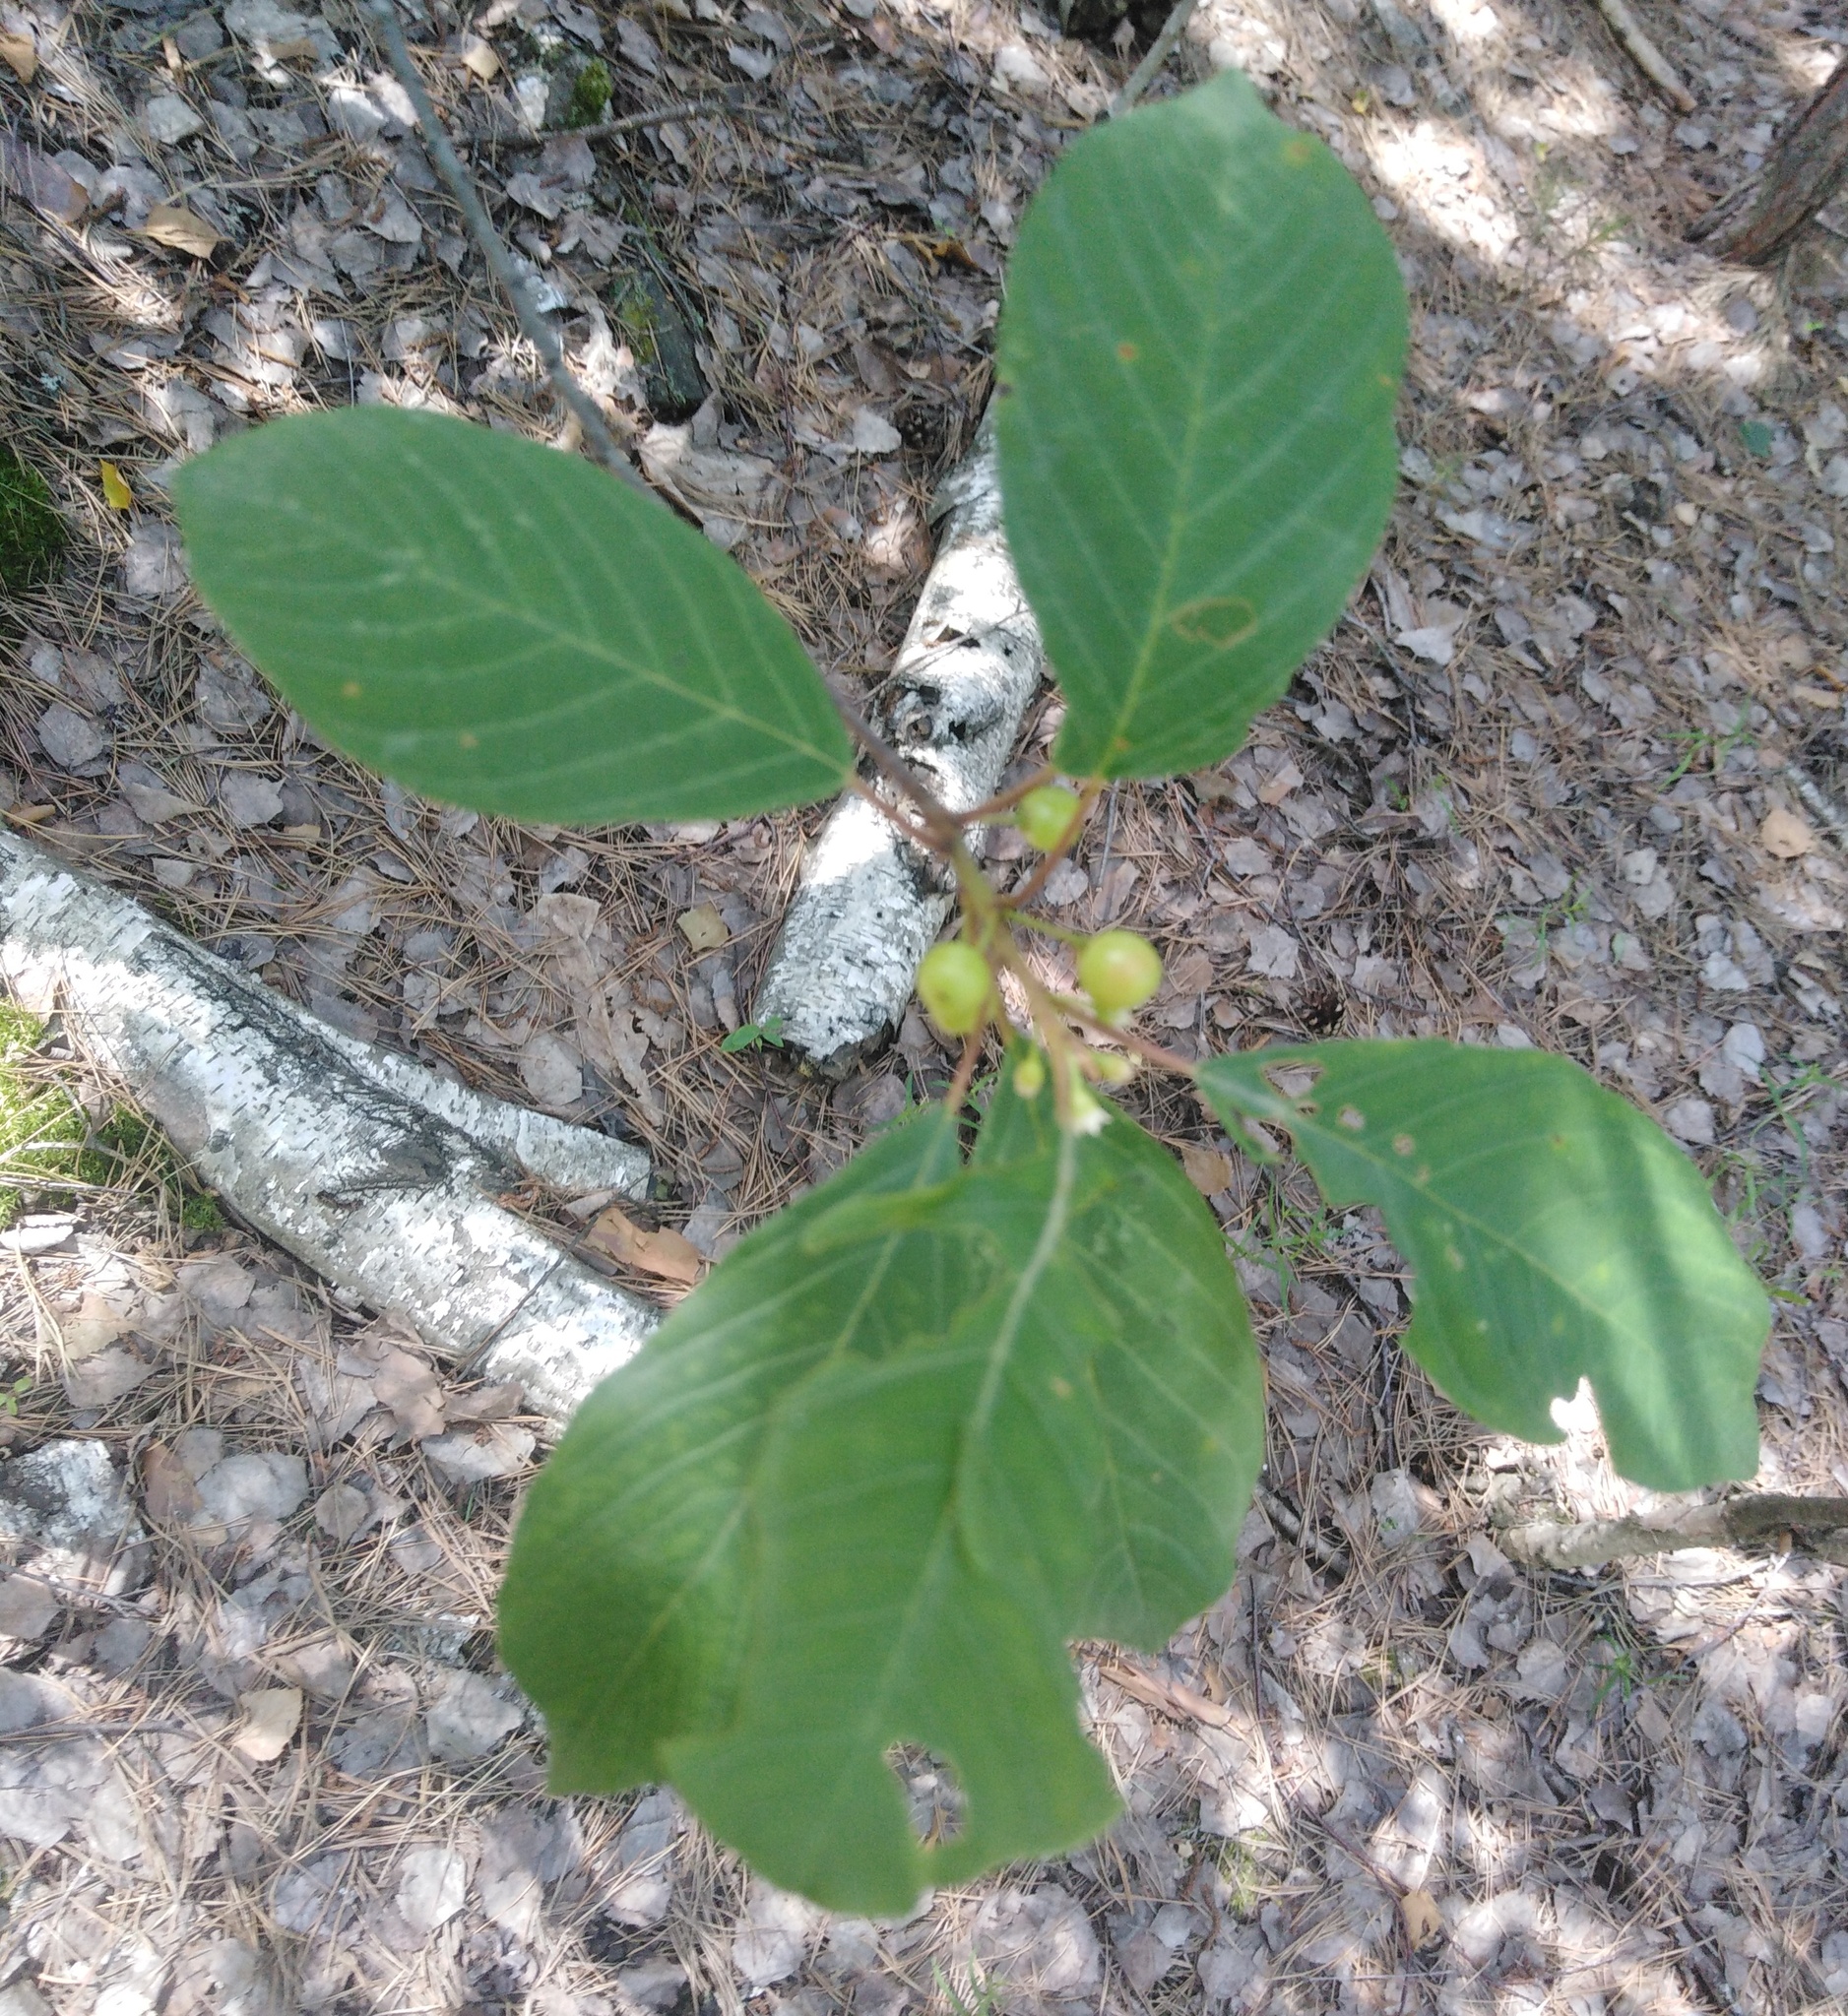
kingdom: Plantae
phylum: Tracheophyta
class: Magnoliopsida
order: Rosales
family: Rhamnaceae
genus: Frangula
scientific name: Frangula alnus
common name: Alder buckthorn
